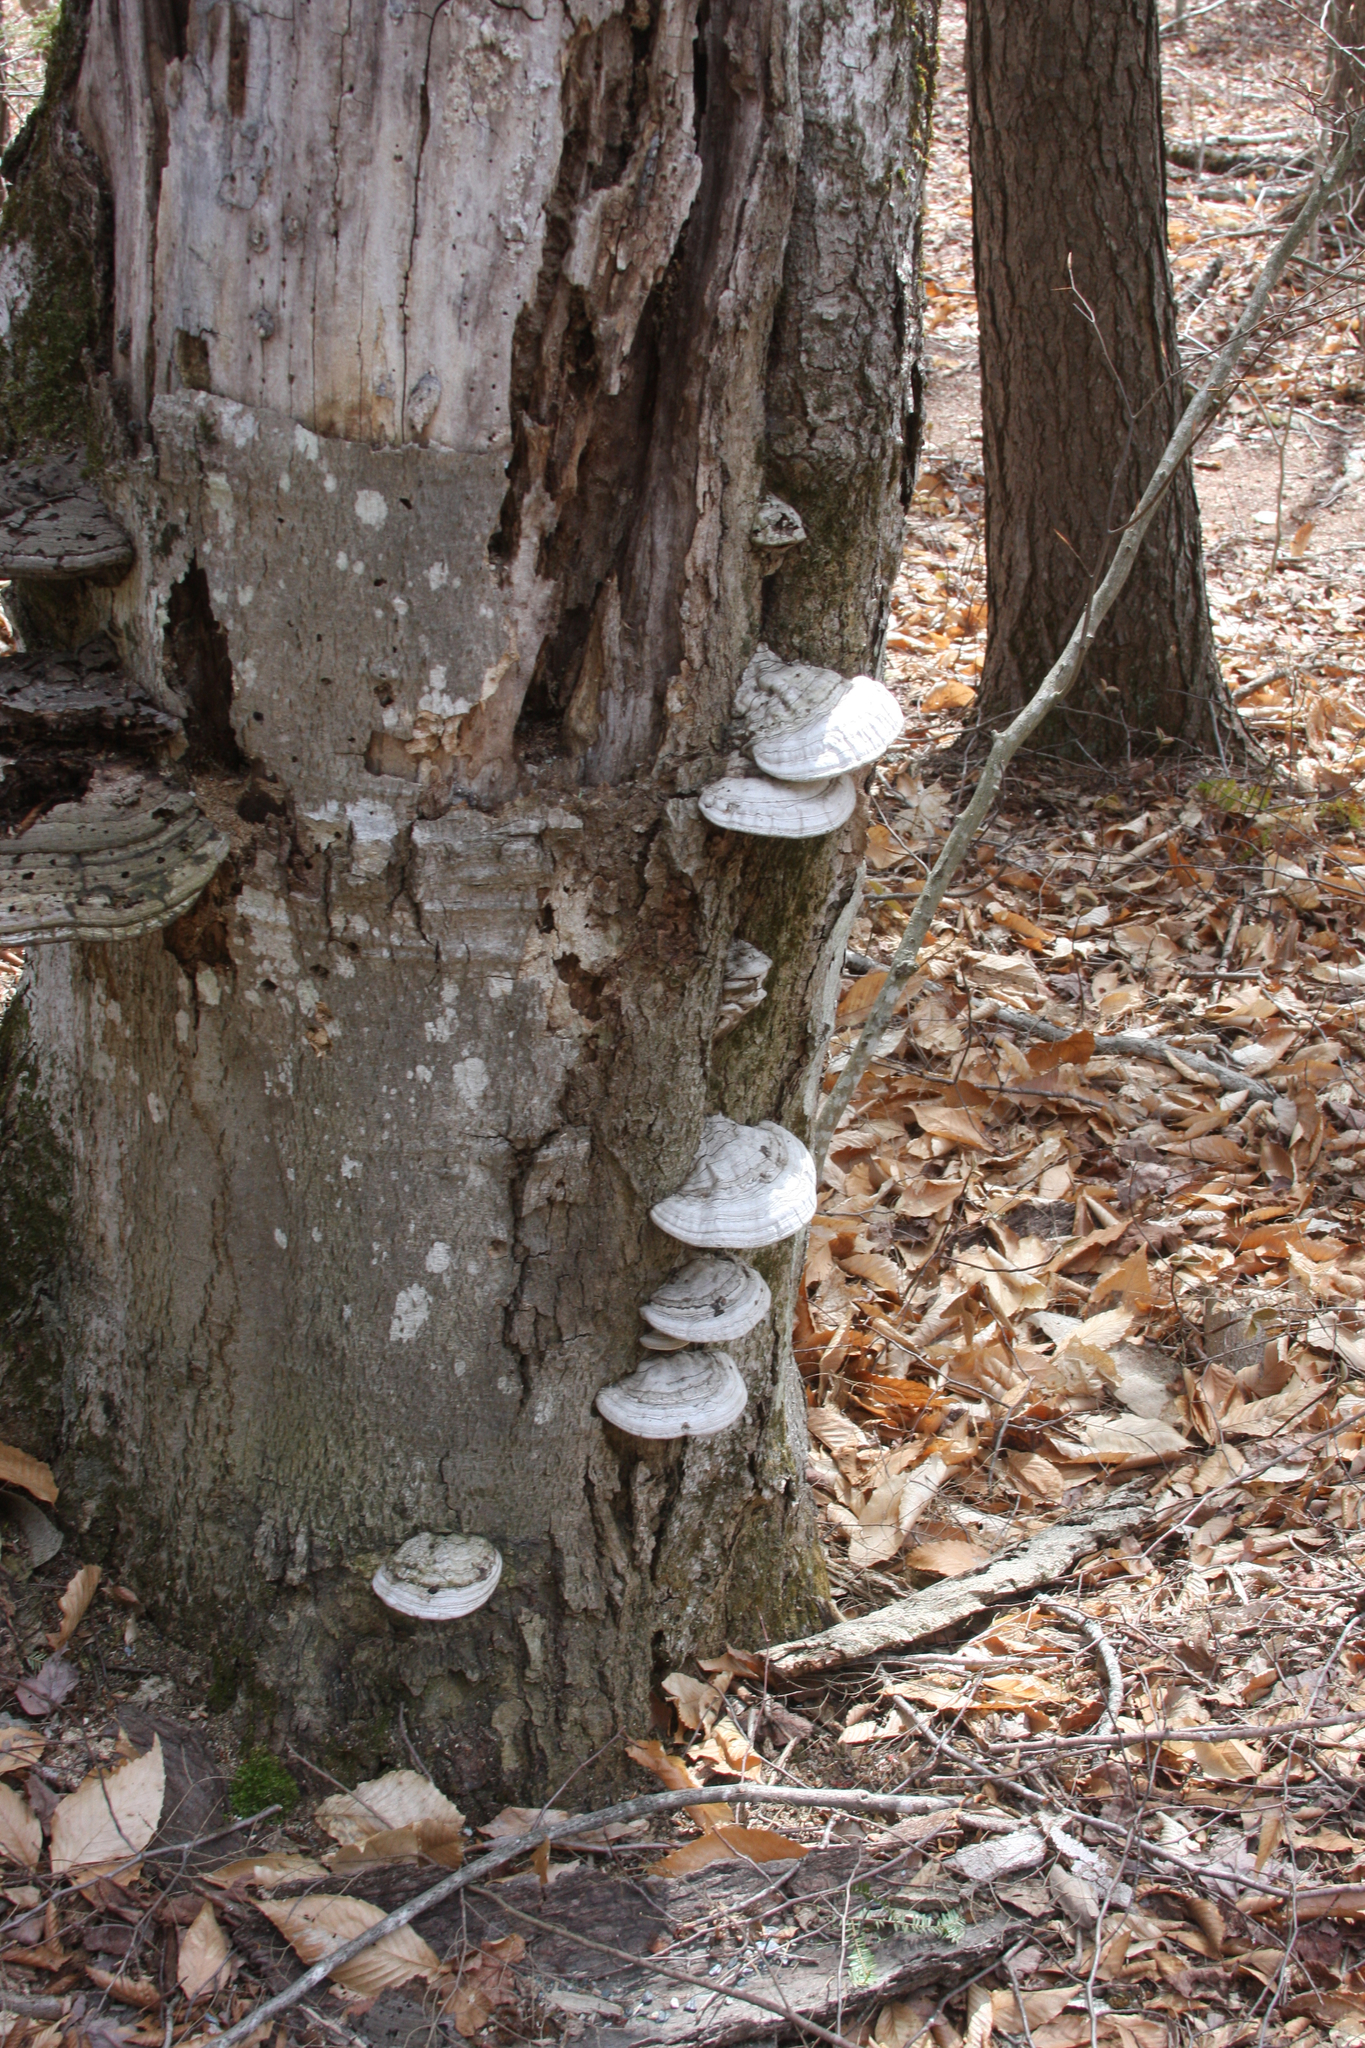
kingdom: Fungi
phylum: Basidiomycota
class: Agaricomycetes
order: Polyporales
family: Polyporaceae
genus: Ganoderma
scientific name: Ganoderma applanatum
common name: Artist's bracket
